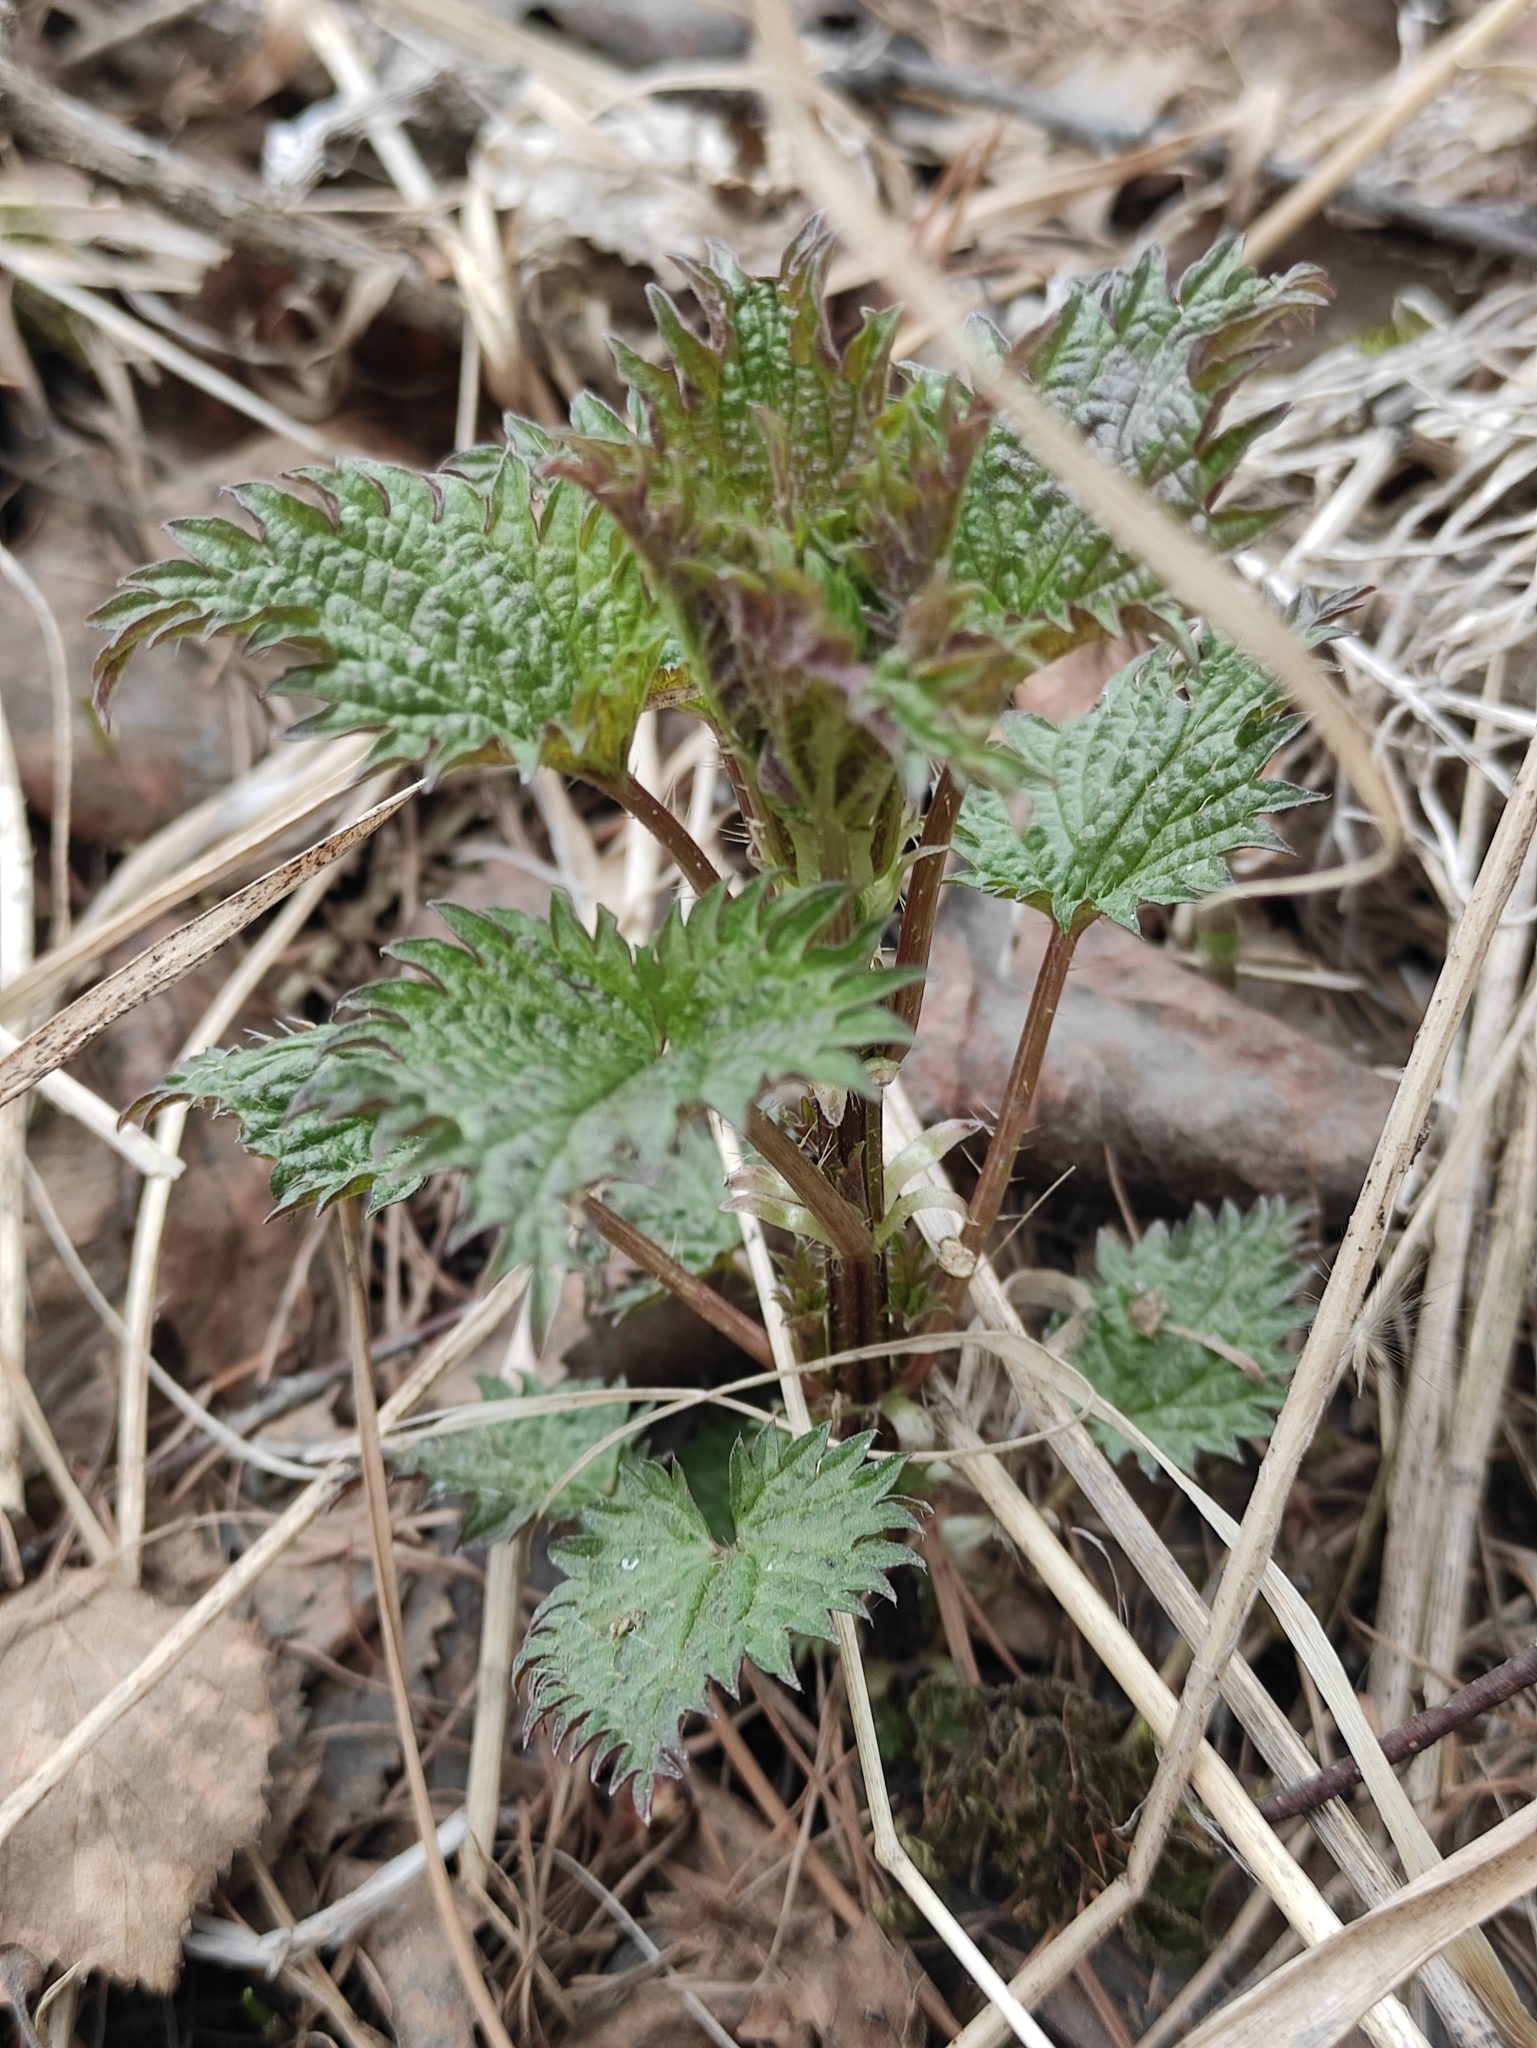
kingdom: Plantae
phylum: Tracheophyta
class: Magnoliopsida
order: Rosales
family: Urticaceae
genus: Urtica
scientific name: Urtica dioica
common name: Common nettle
